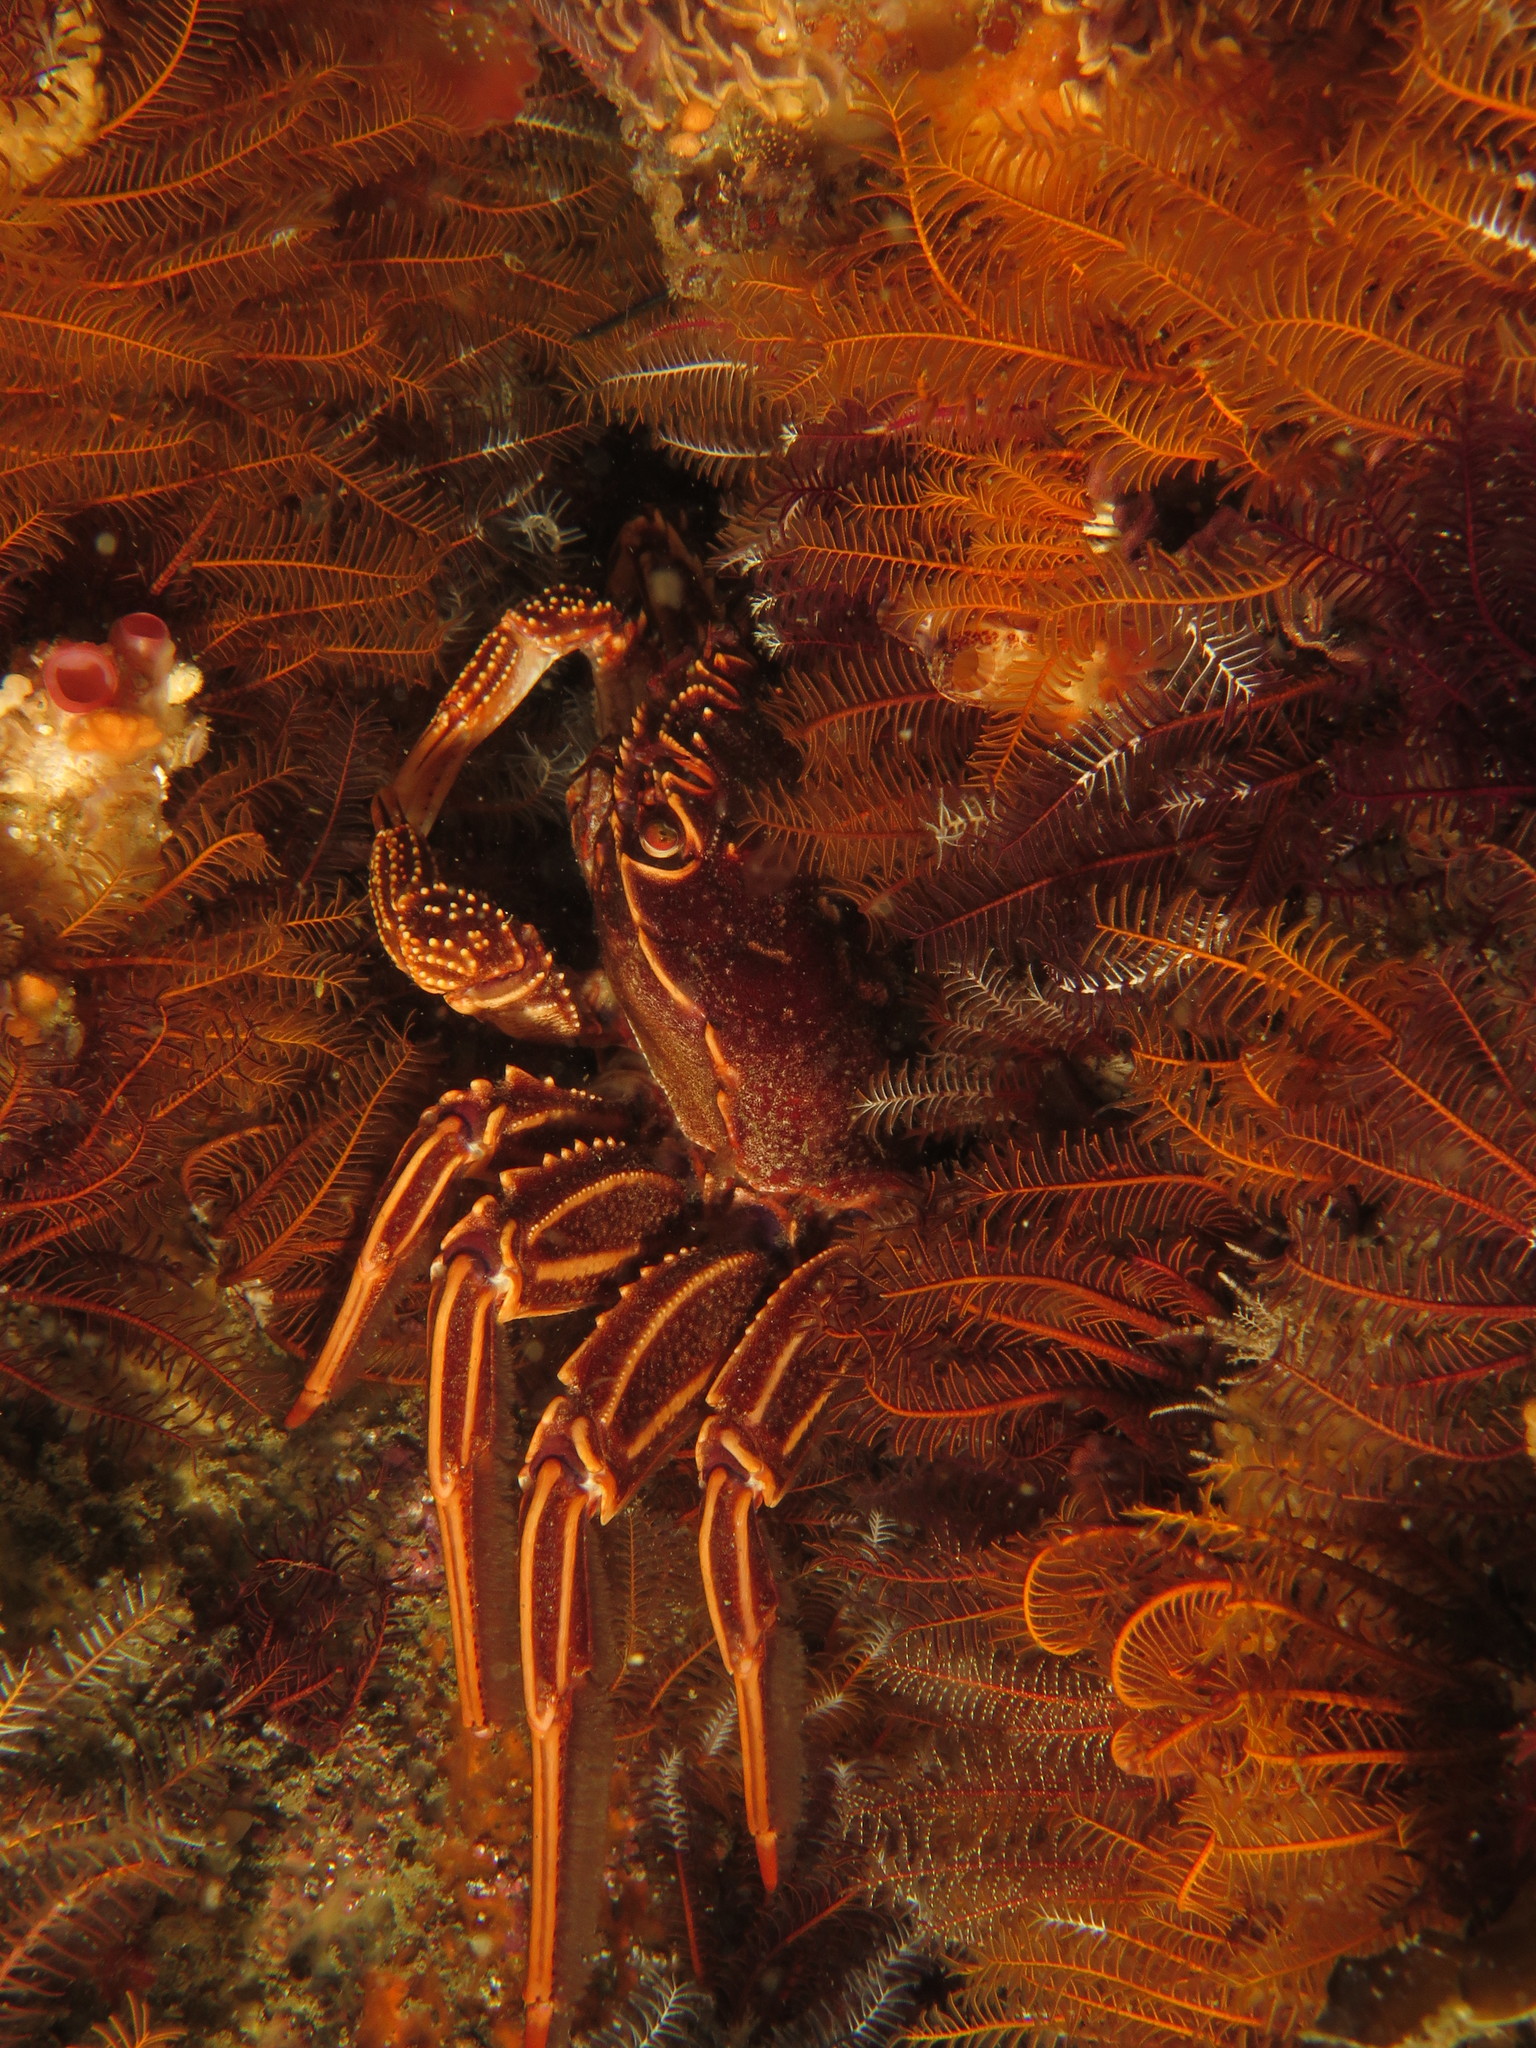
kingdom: Animalia
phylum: Arthropoda
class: Malacostraca
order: Decapoda
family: Plagusiidae
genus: Guinusia
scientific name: Guinusia chabrus
